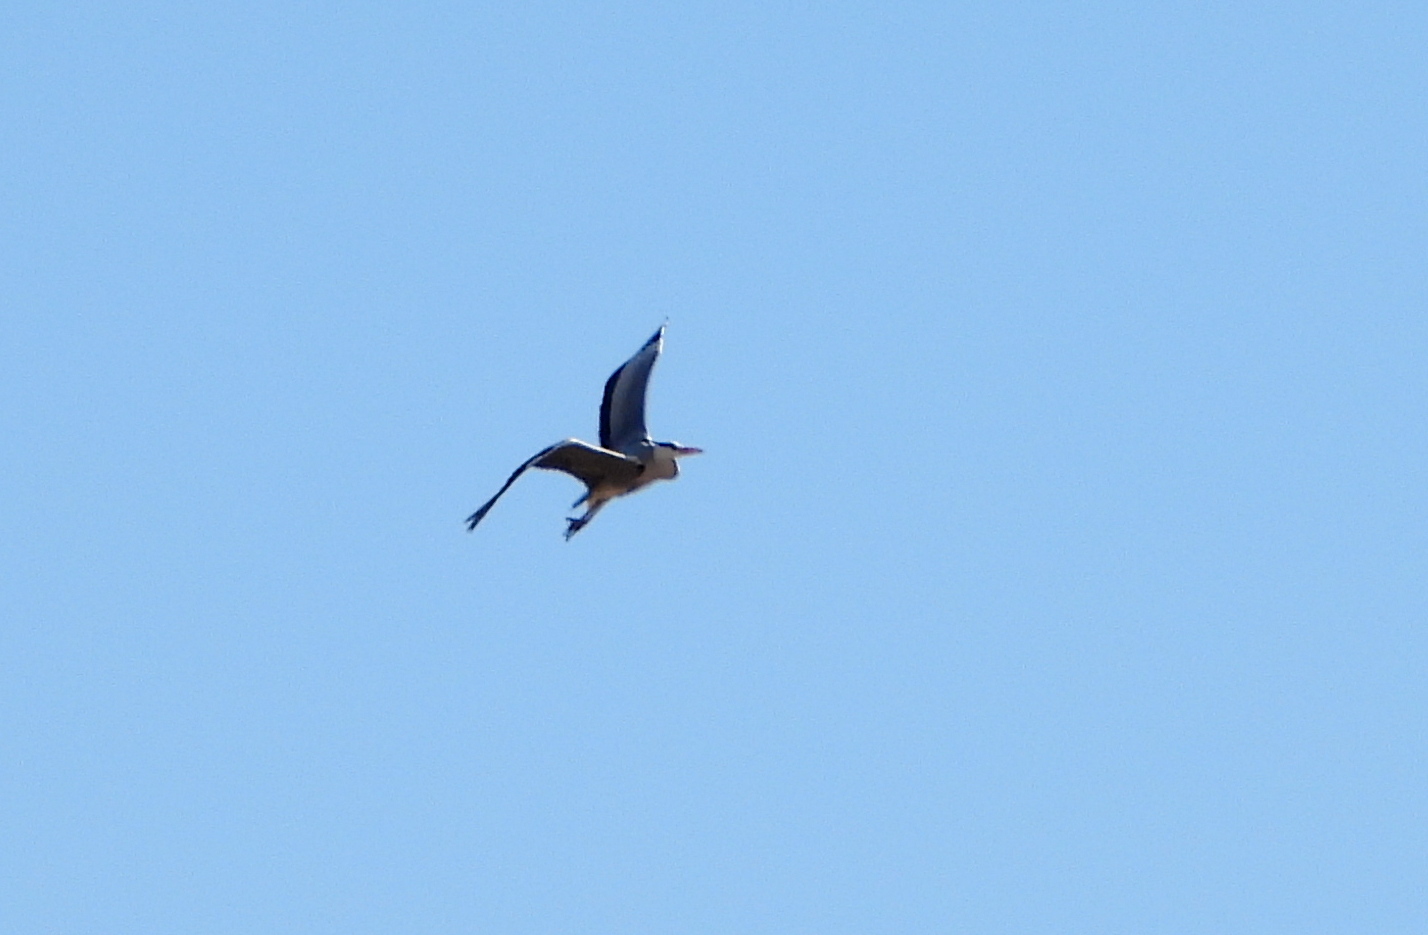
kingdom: Animalia
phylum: Chordata
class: Aves
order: Pelecaniformes
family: Ardeidae
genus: Ardea
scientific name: Ardea cinerea
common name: Grey heron
